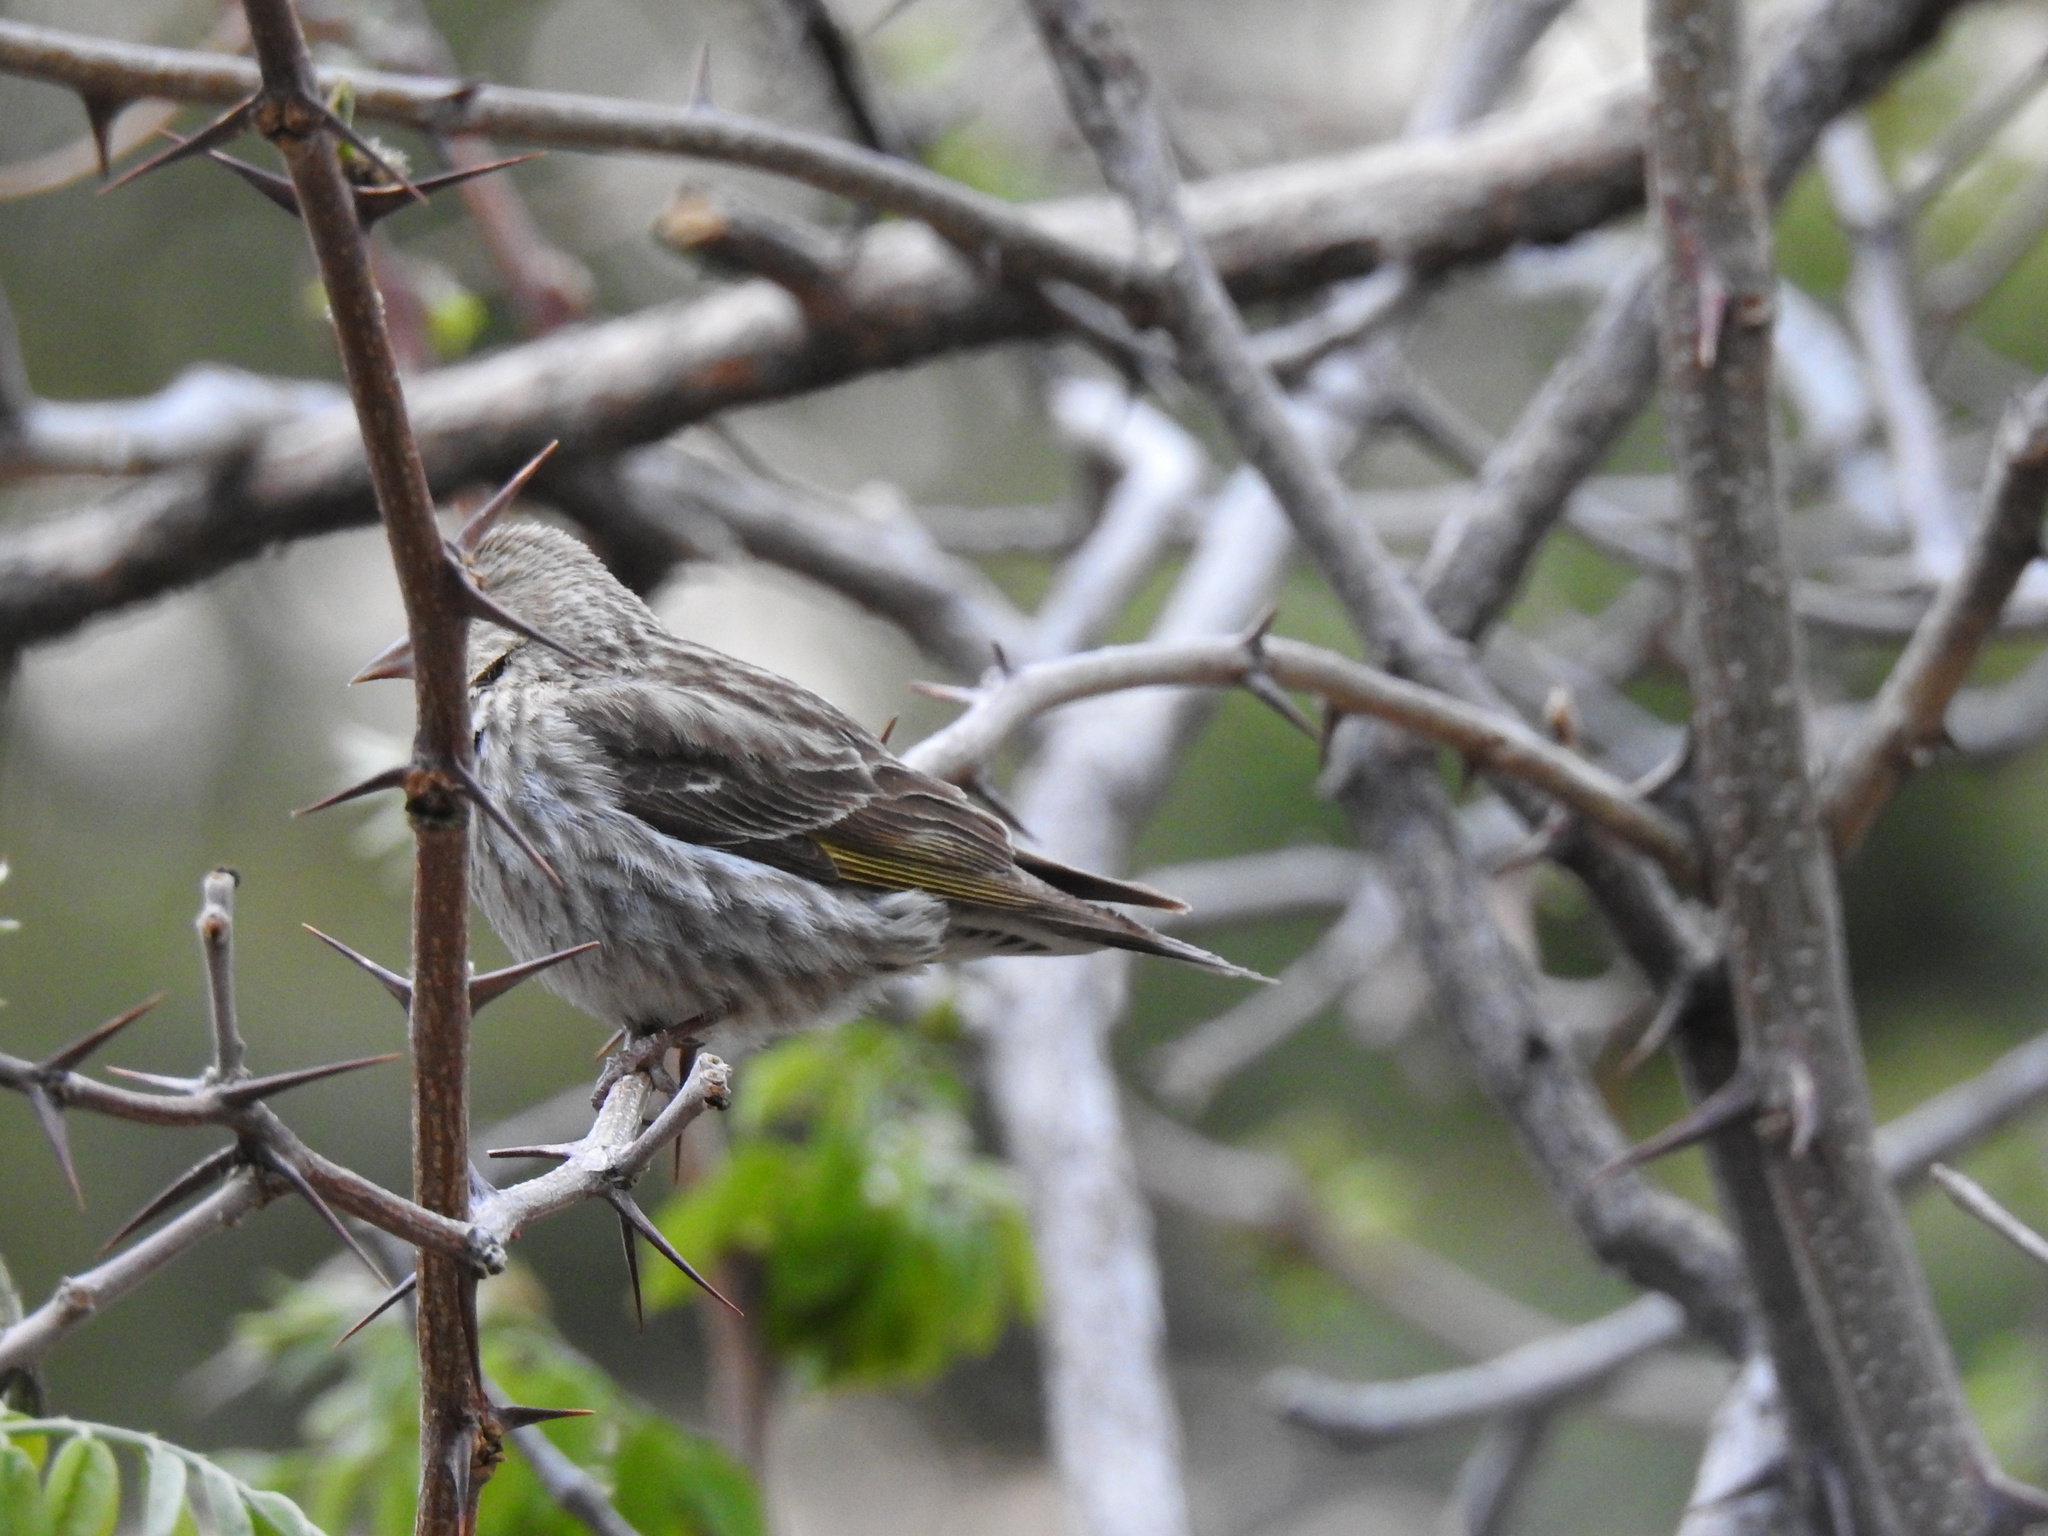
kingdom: Animalia
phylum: Chordata
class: Aves
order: Passeriformes
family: Cardinalidae
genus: Pheucticus
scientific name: Pheucticus melanocephalus
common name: Black-headed grosbeak
